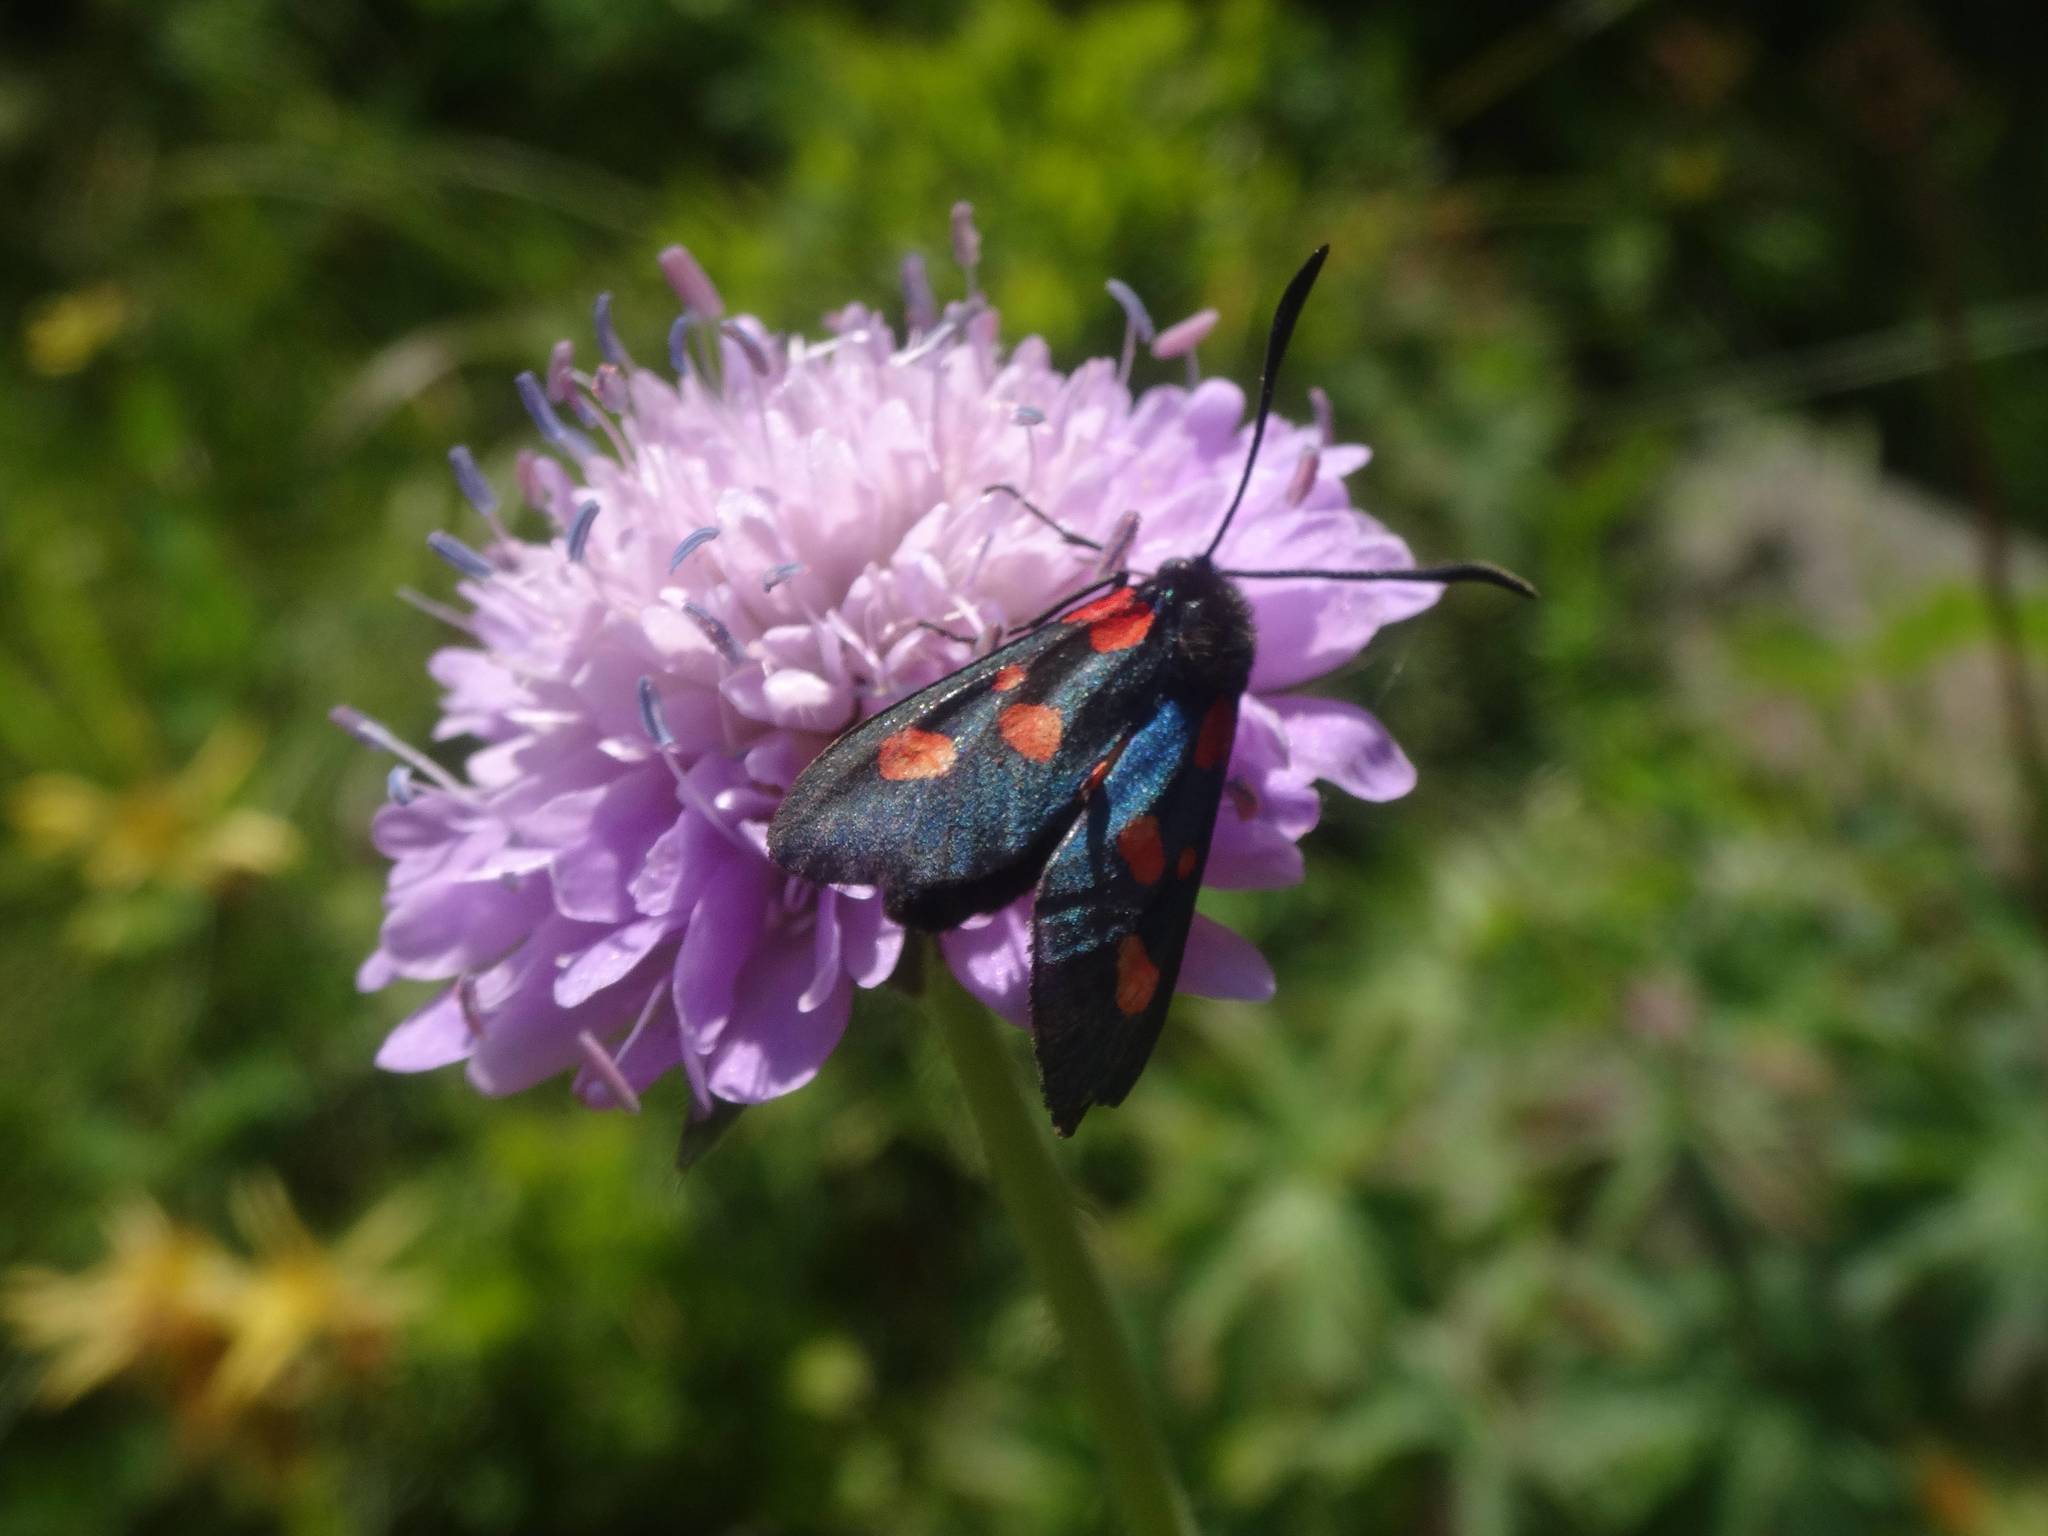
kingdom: Animalia
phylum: Arthropoda
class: Insecta
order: Lepidoptera
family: Zygaenidae
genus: Zygaena
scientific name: Zygaena lonicerae
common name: Narrow-bordered five-spot burnet
